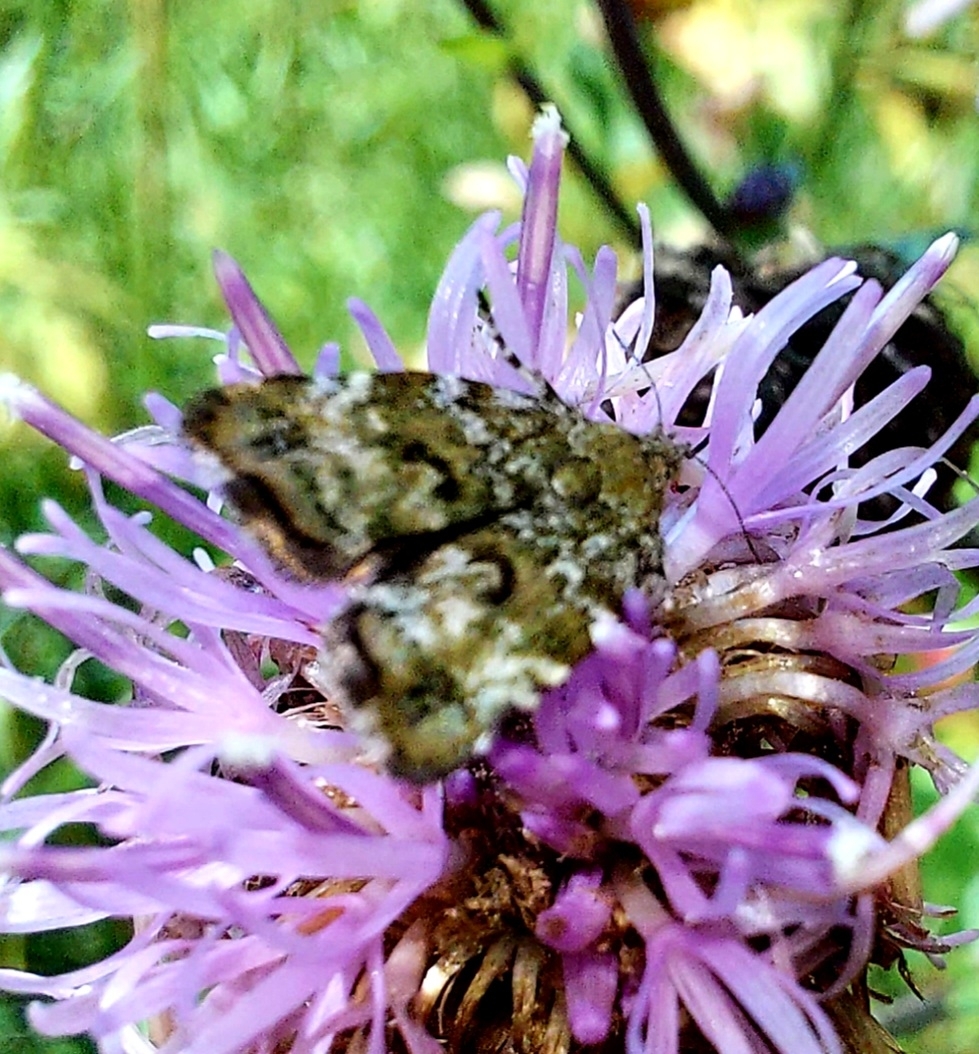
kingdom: Animalia
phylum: Arthropoda
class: Insecta
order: Lepidoptera
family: Choreutidae
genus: Choreutis
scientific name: Choreutis diana
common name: Inverness twitcher
